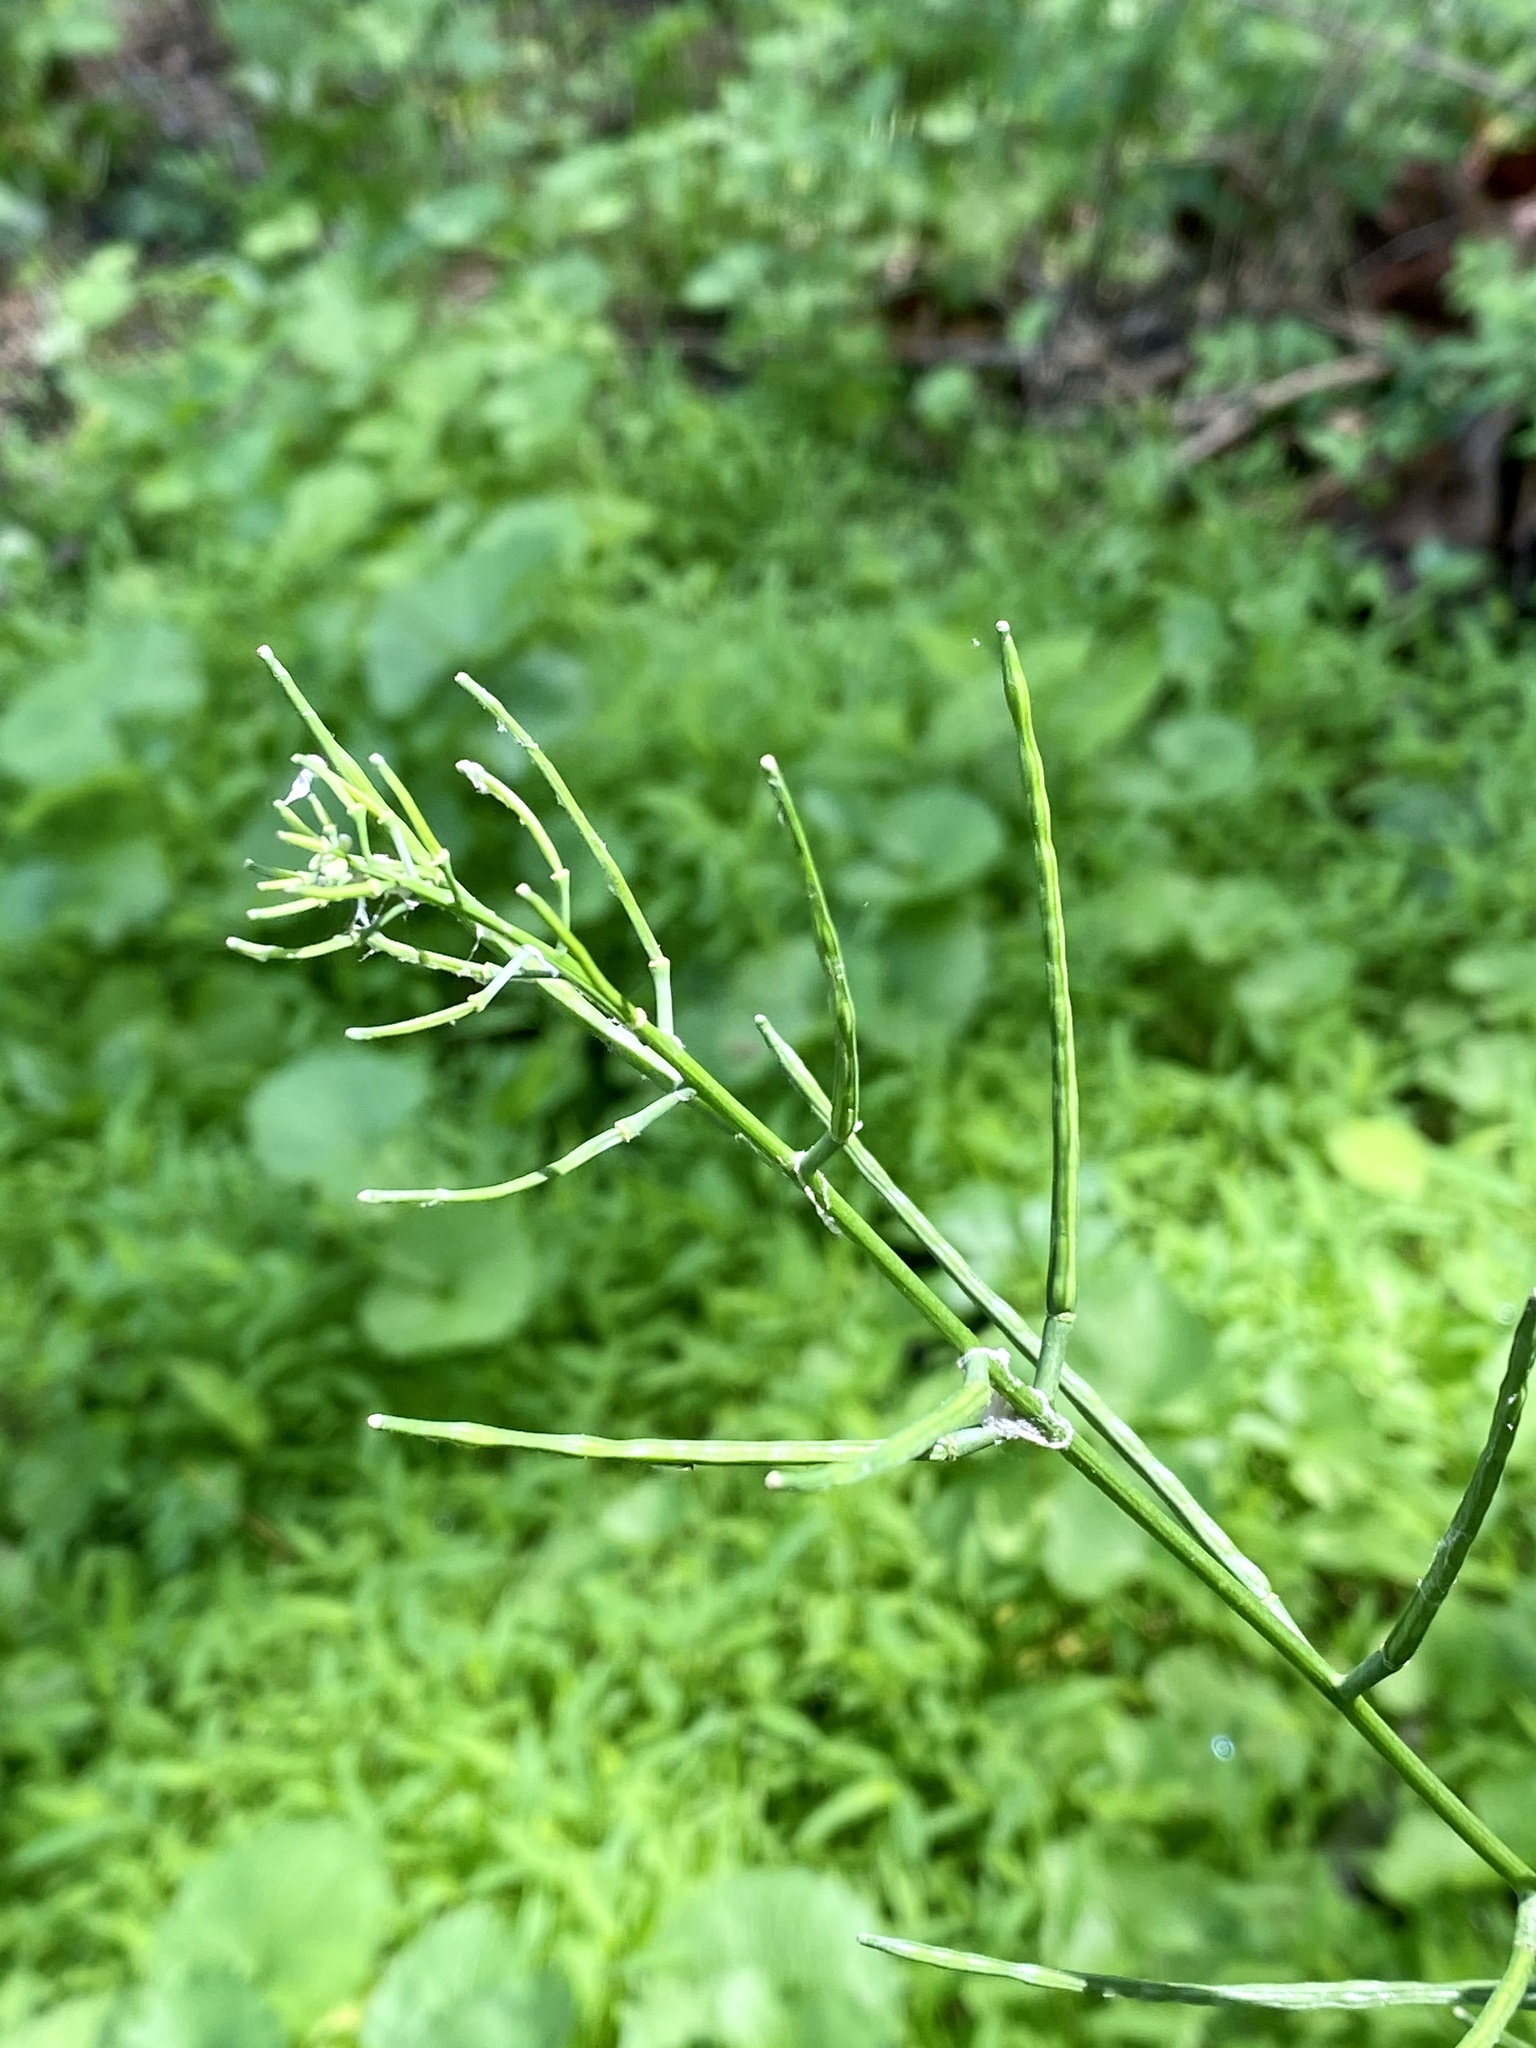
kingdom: Plantae
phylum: Tracheophyta
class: Magnoliopsida
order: Brassicales
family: Brassicaceae
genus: Alliaria
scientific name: Alliaria petiolata
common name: Garlic mustard
